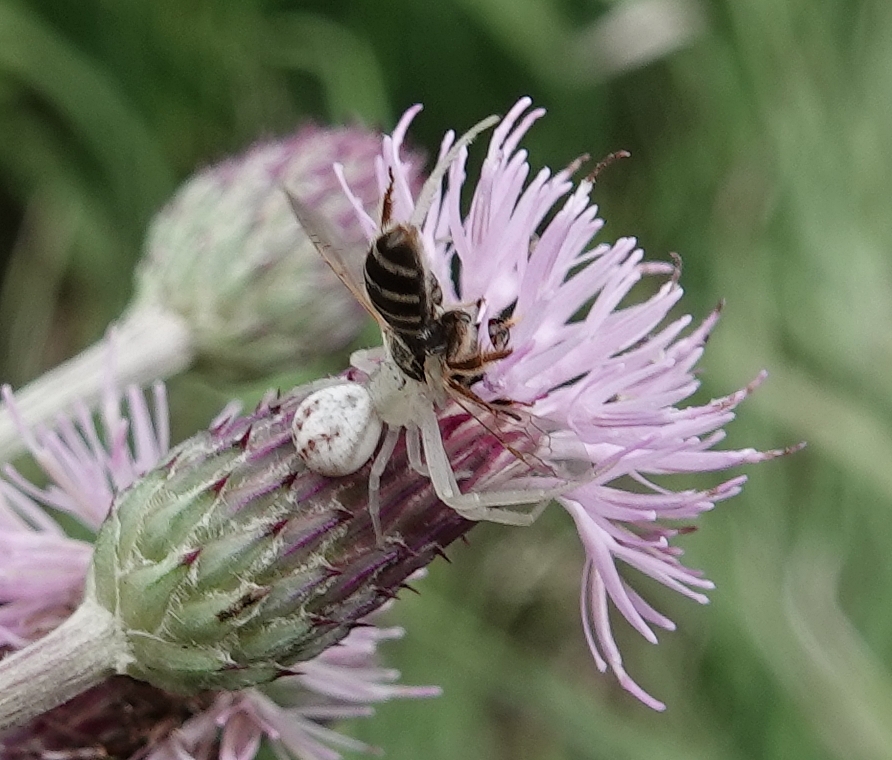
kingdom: Animalia
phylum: Arthropoda
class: Arachnida
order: Araneae
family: Thomisidae
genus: Misumenoides
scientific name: Misumenoides formosipes
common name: White-banded crab spider
